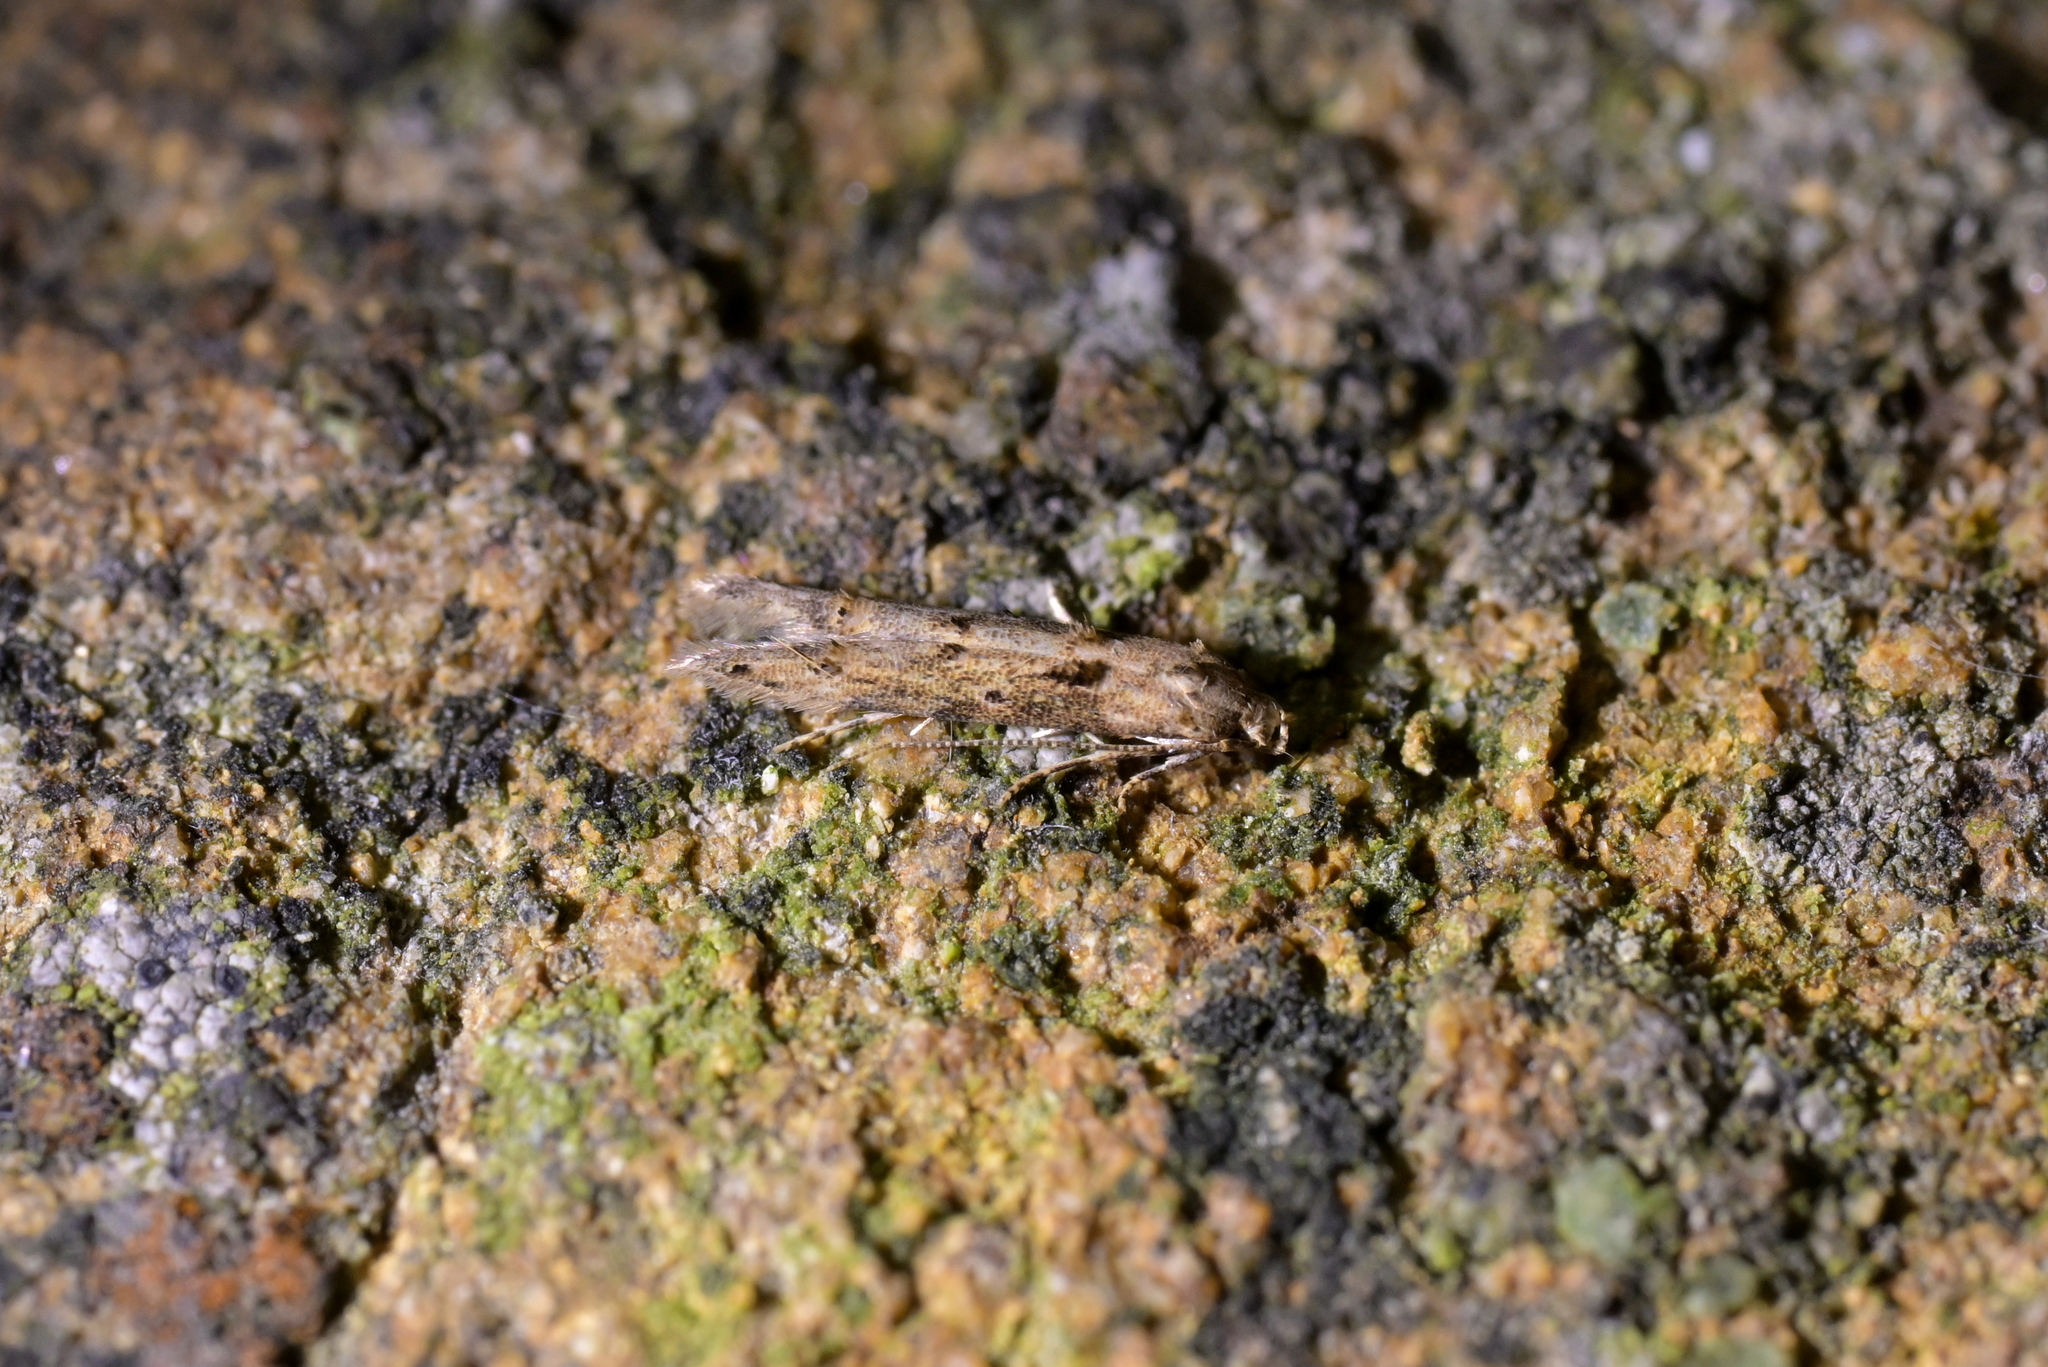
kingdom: Animalia
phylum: Arthropoda
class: Insecta
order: Lepidoptera
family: Elachistidae
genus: Microcolona
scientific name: Microcolona limodes
